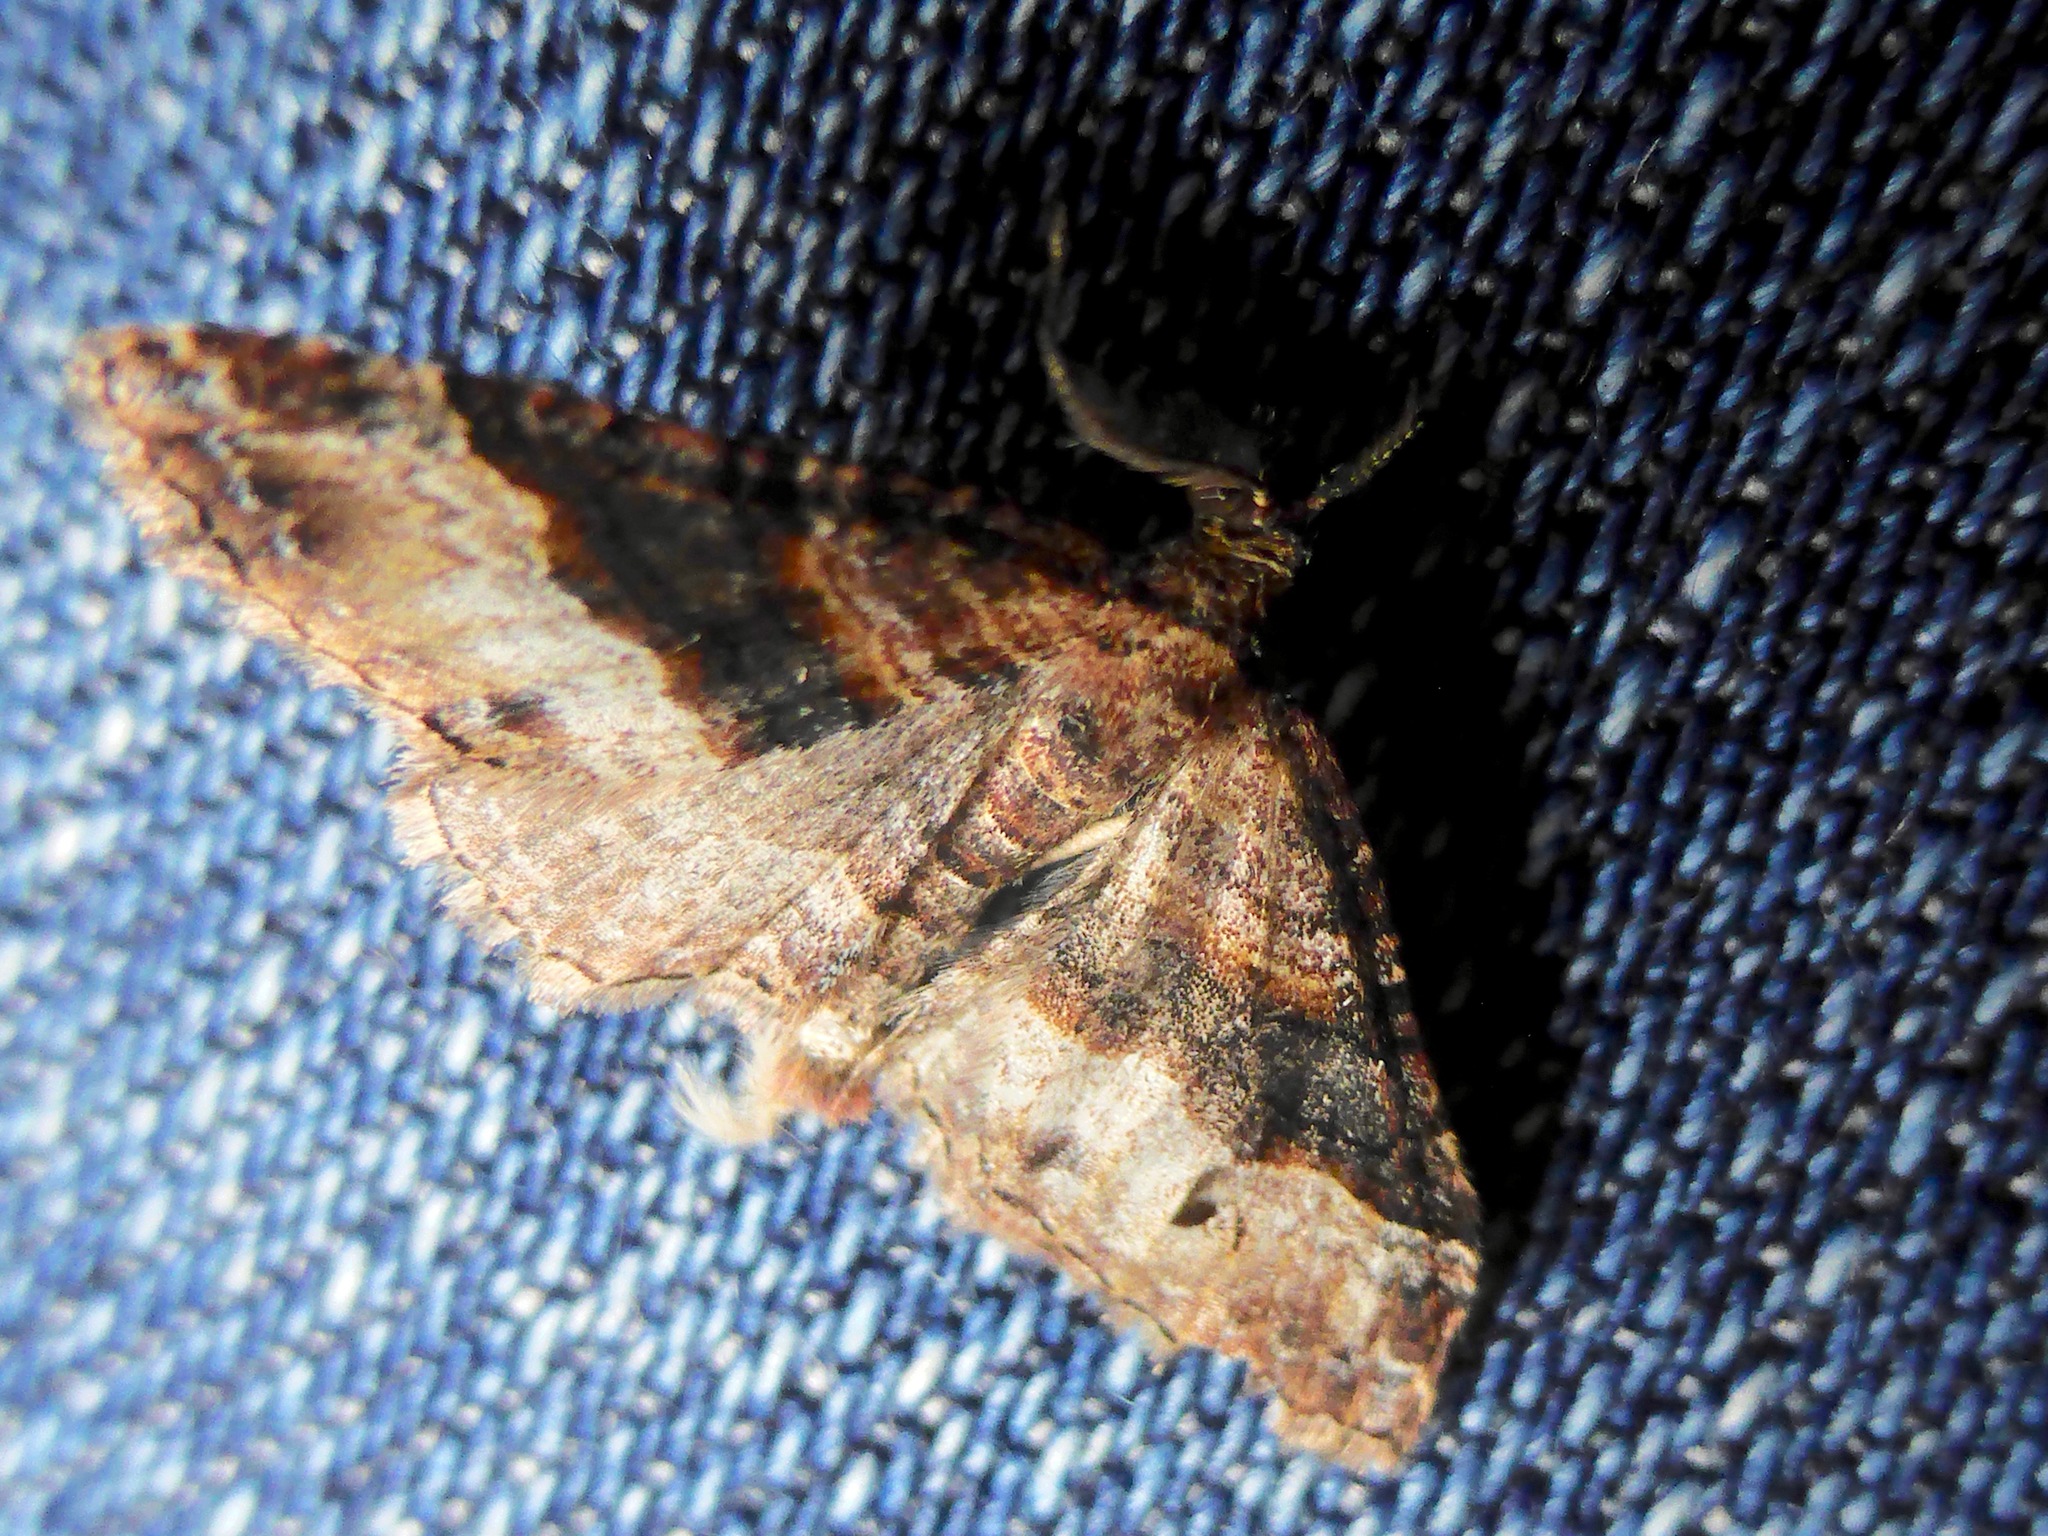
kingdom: Animalia
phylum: Arthropoda
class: Insecta
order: Lepidoptera
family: Geometridae
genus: Epyaxa
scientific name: Epyaxa lucidata
